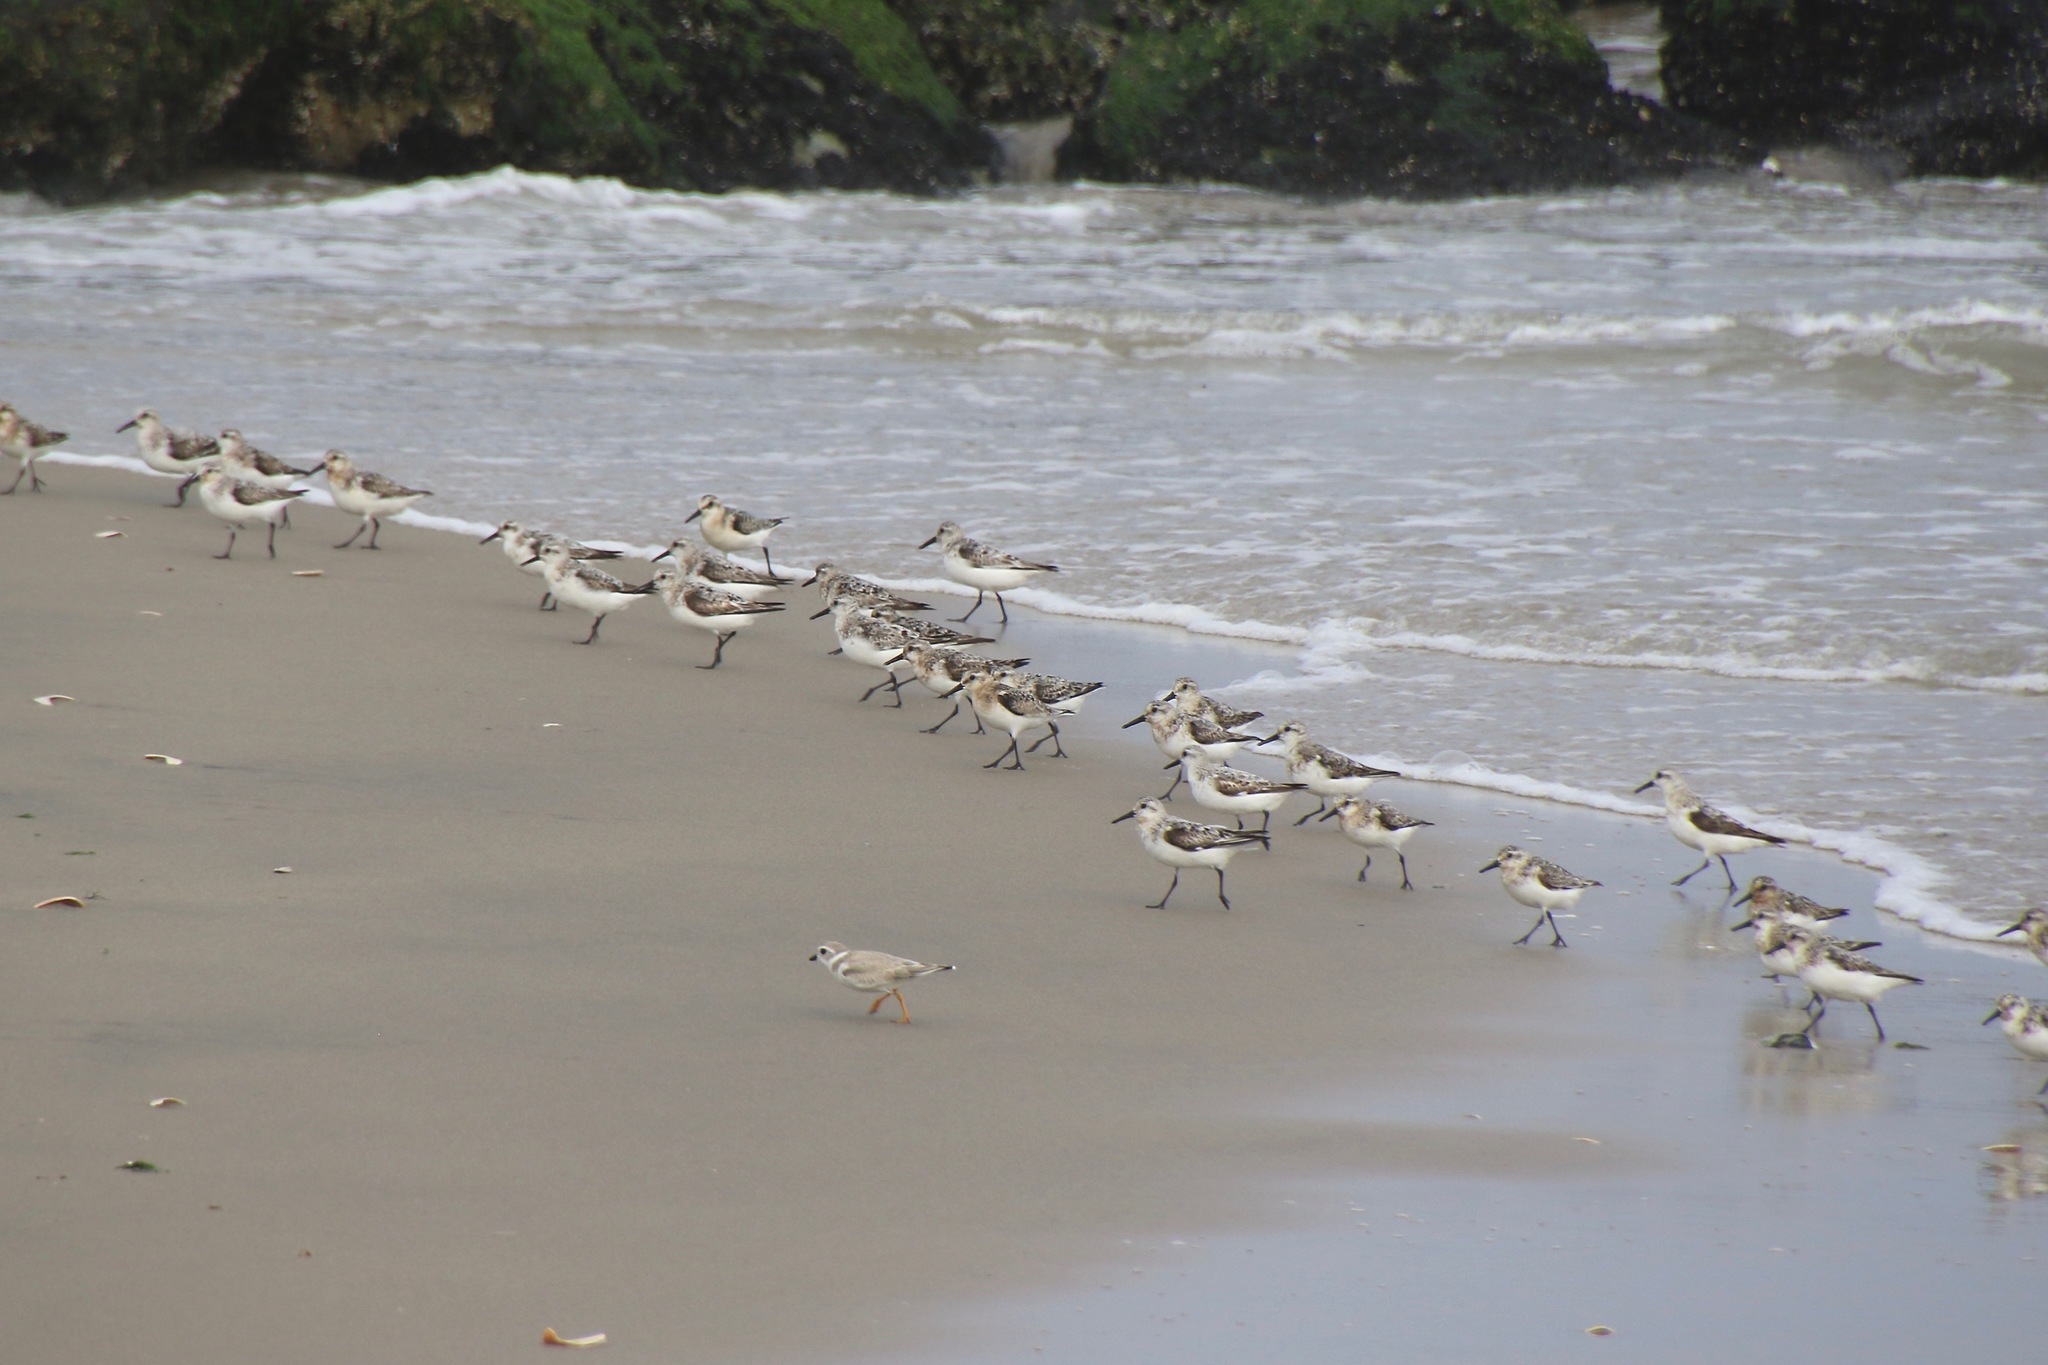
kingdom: Animalia
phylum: Chordata
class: Aves
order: Charadriiformes
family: Scolopacidae
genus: Calidris
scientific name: Calidris alba
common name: Sanderling
